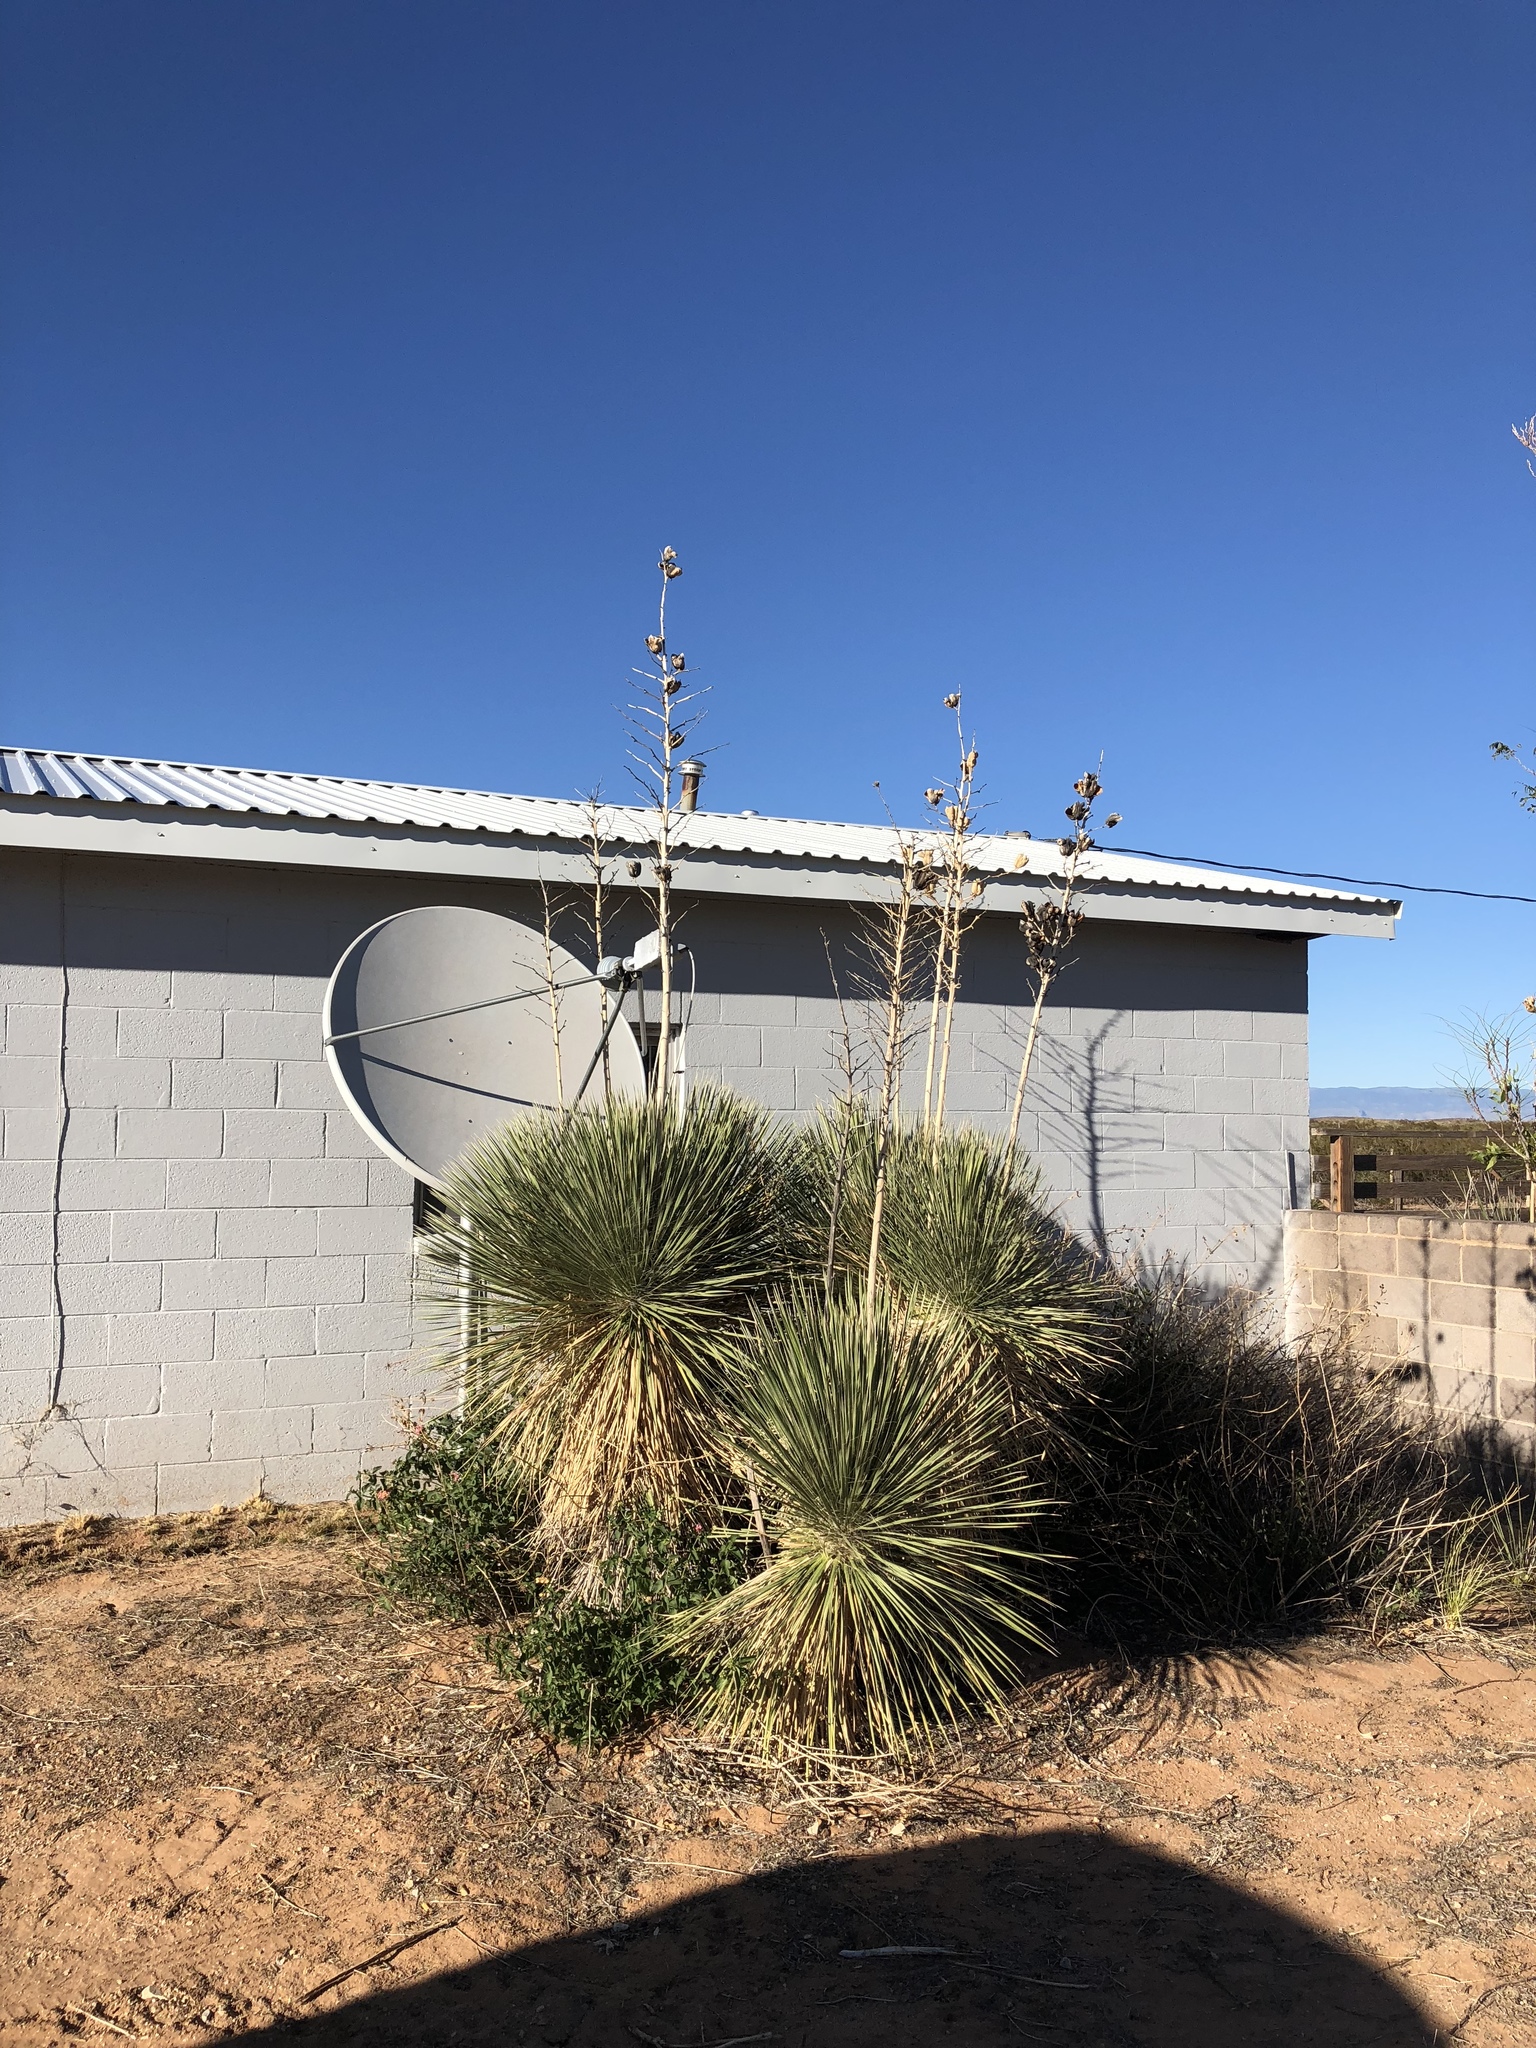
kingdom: Plantae
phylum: Tracheophyta
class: Liliopsida
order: Asparagales
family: Asparagaceae
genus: Yucca
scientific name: Yucca elata
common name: Palmella
